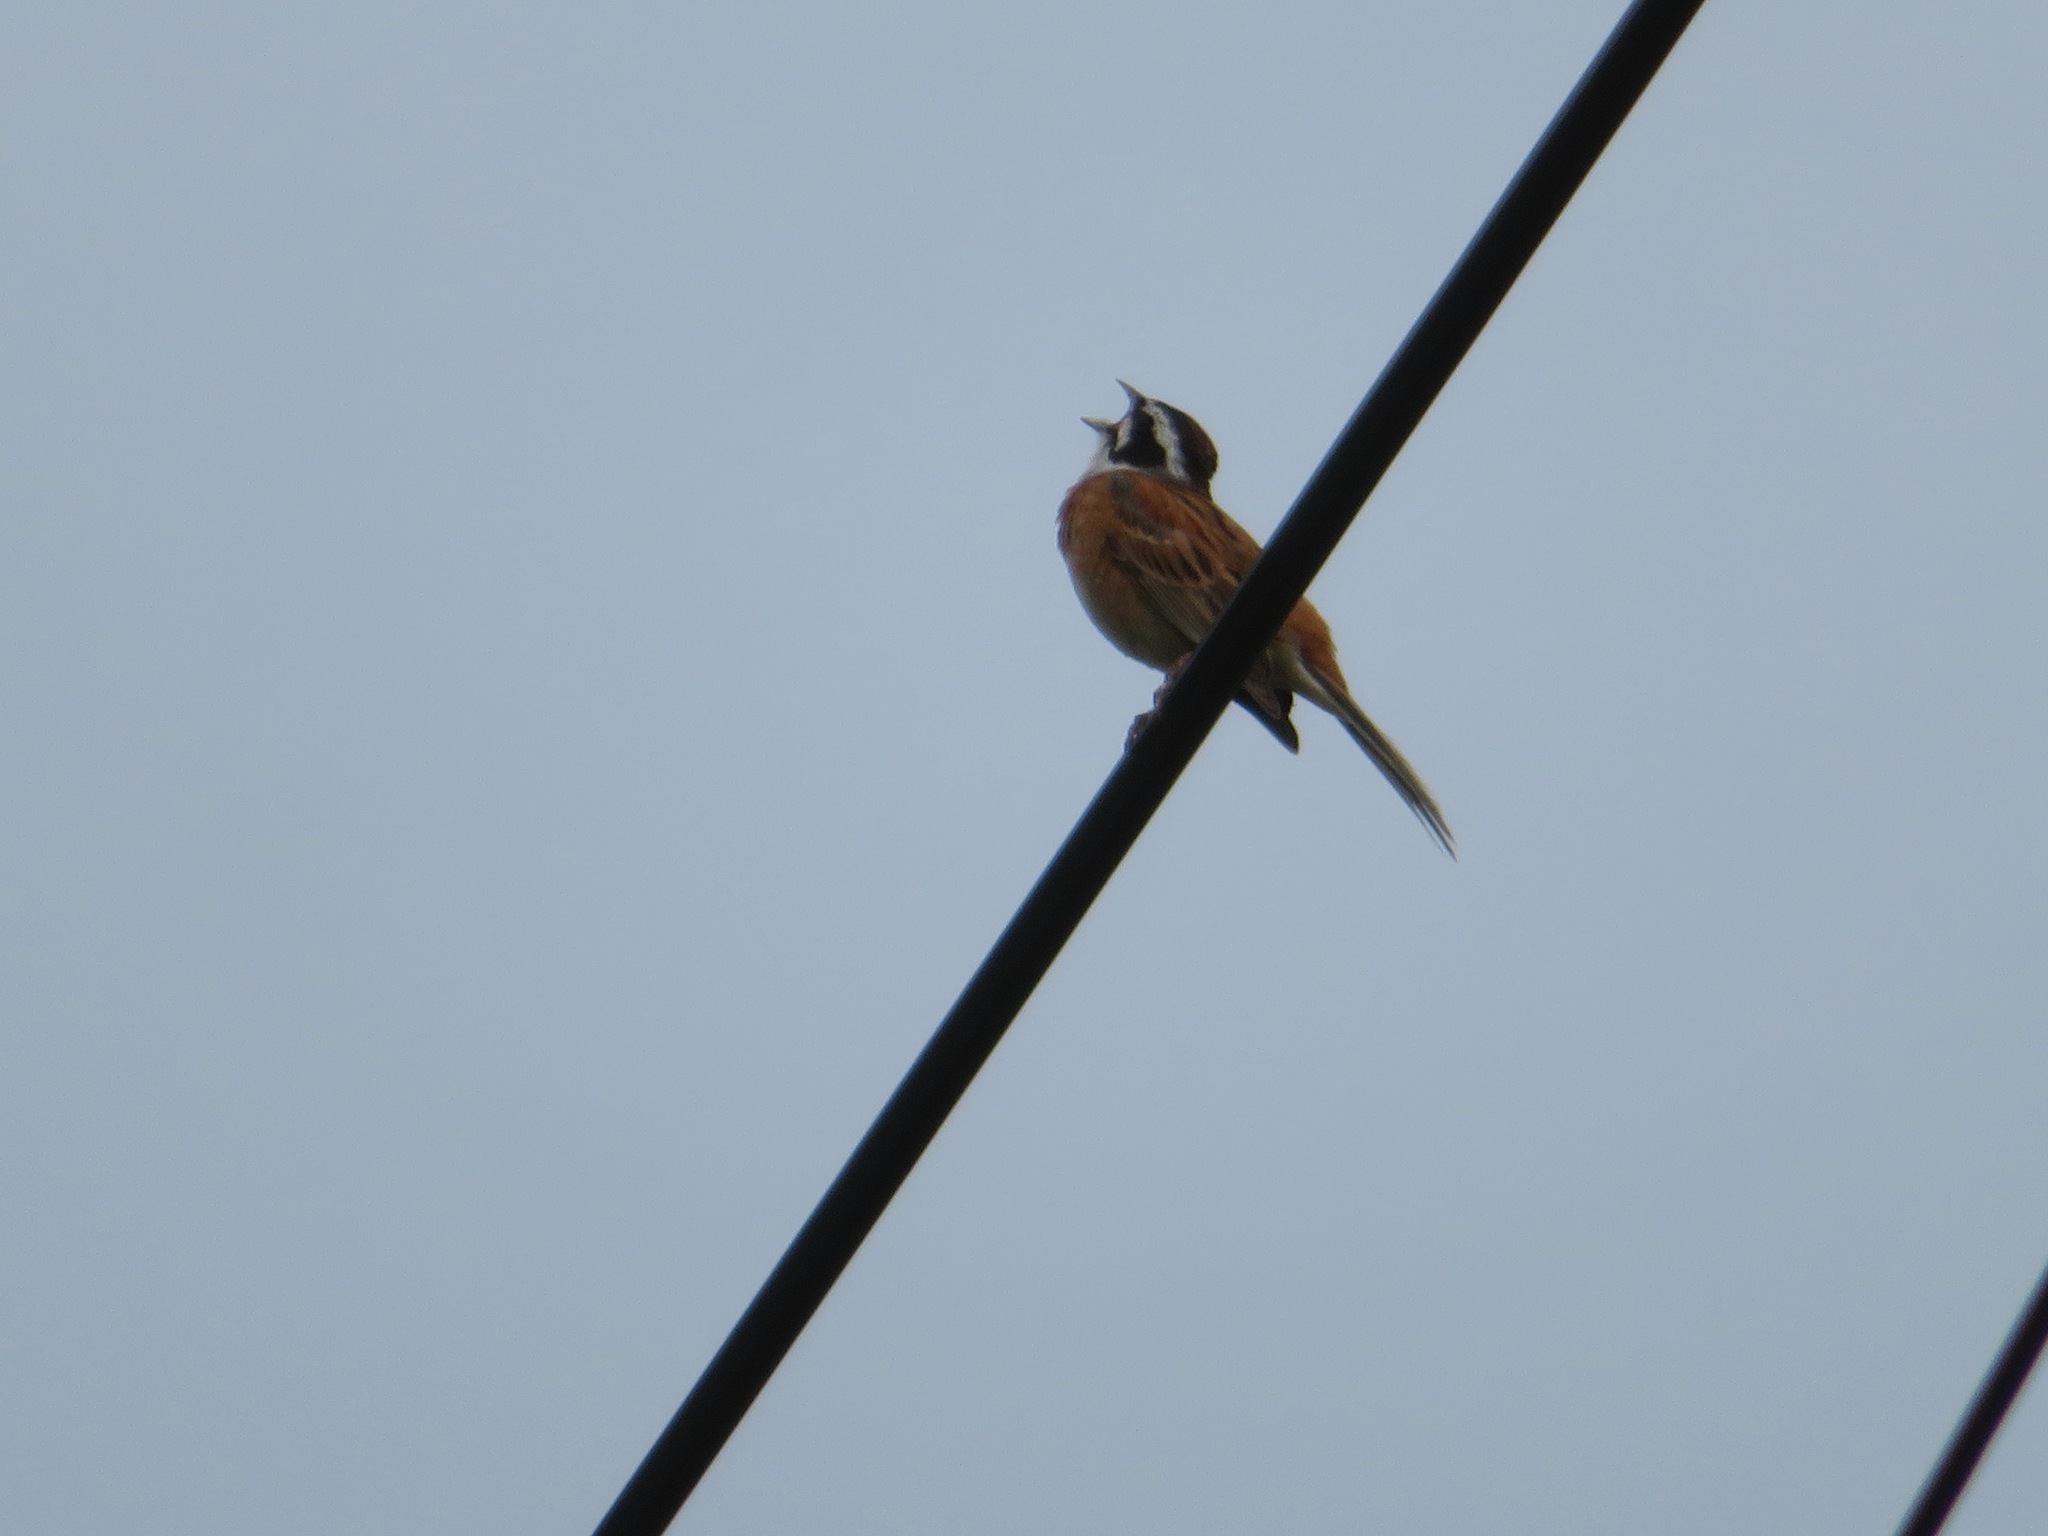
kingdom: Animalia
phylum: Chordata
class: Aves
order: Passeriformes
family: Emberizidae
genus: Emberiza
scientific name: Emberiza cioides
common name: Meadow bunting
